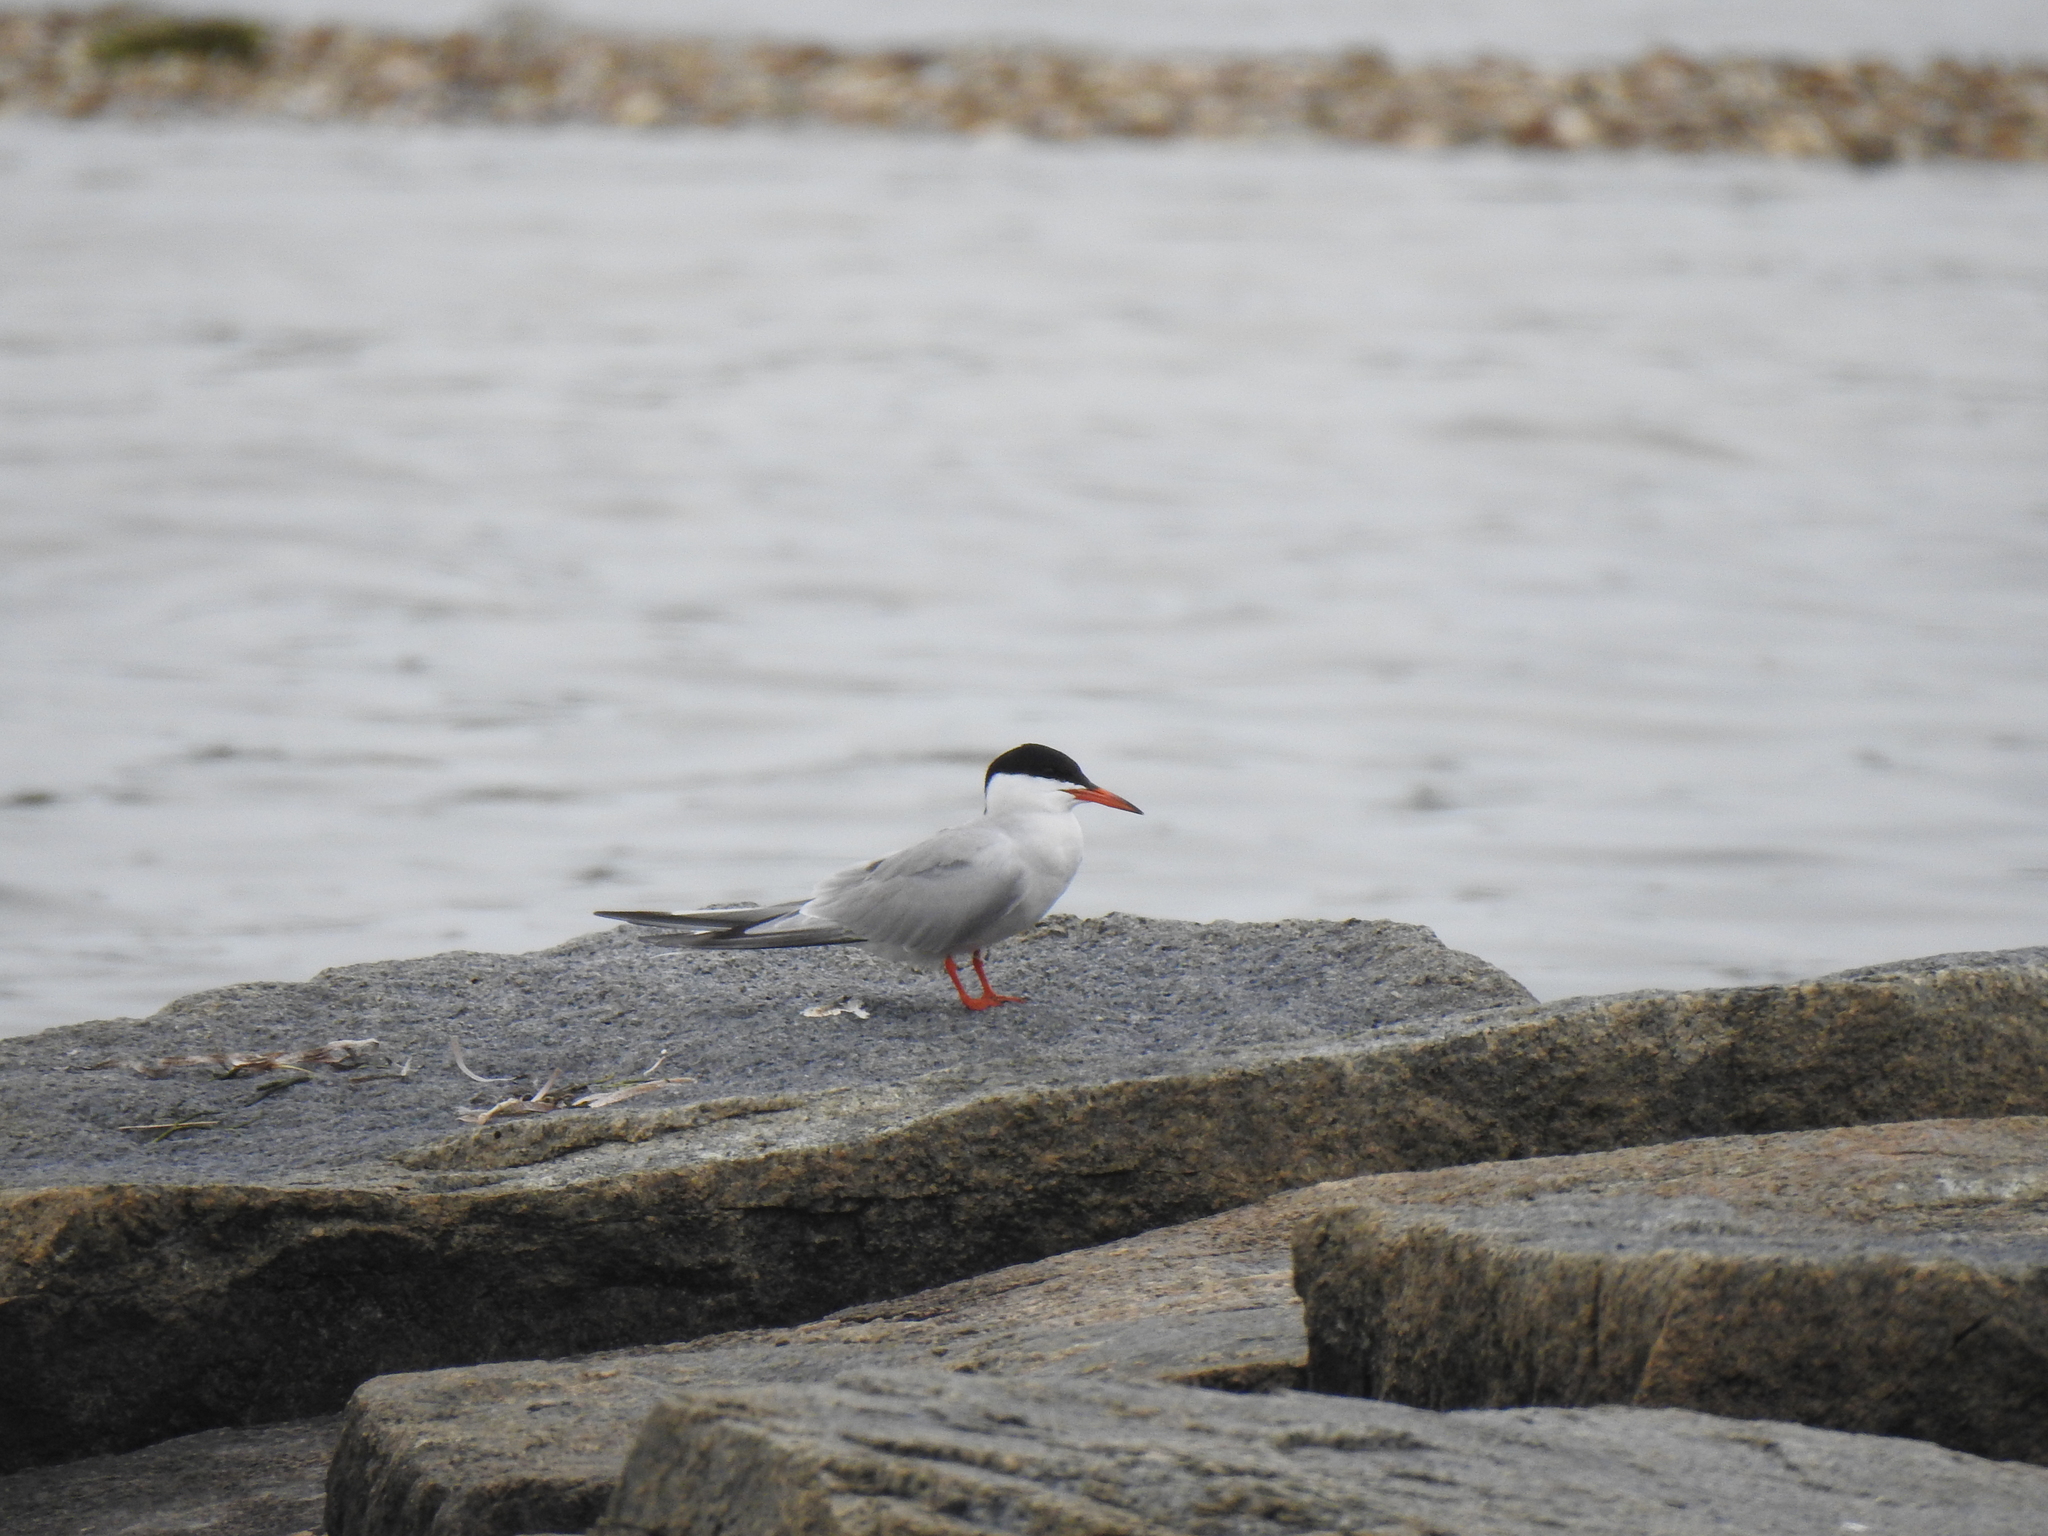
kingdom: Animalia
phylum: Chordata
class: Aves
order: Charadriiformes
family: Laridae
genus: Sterna
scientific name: Sterna hirundo
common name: Common tern
